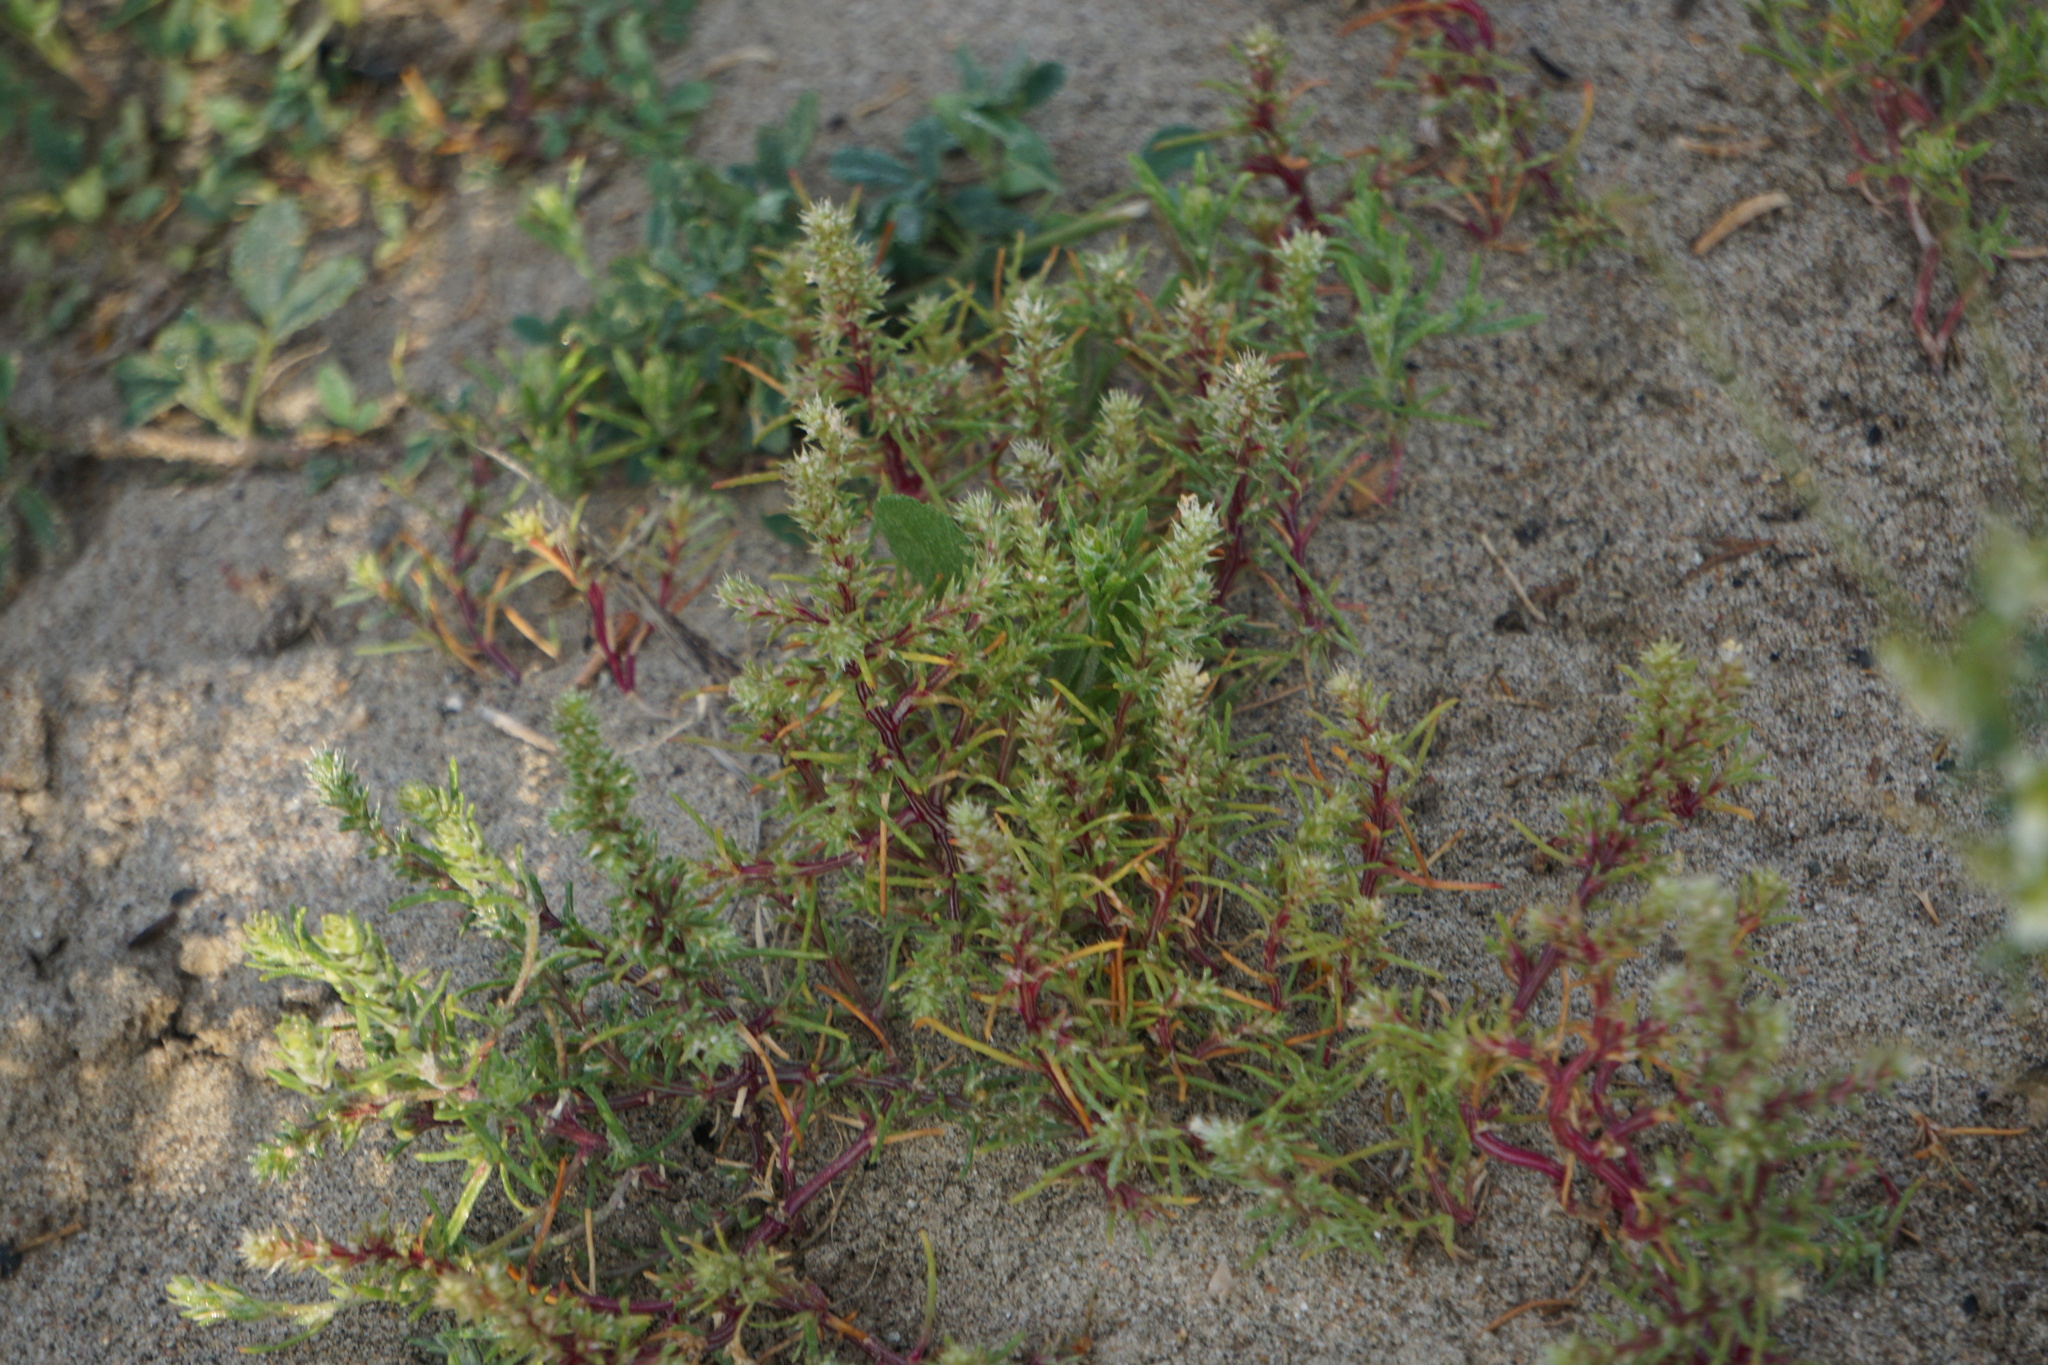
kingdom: Plantae
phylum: Tracheophyta
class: Magnoliopsida
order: Caryophyllales
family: Amaranthaceae
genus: Salsola
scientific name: Salsola tragus
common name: Prickly russian thistle
